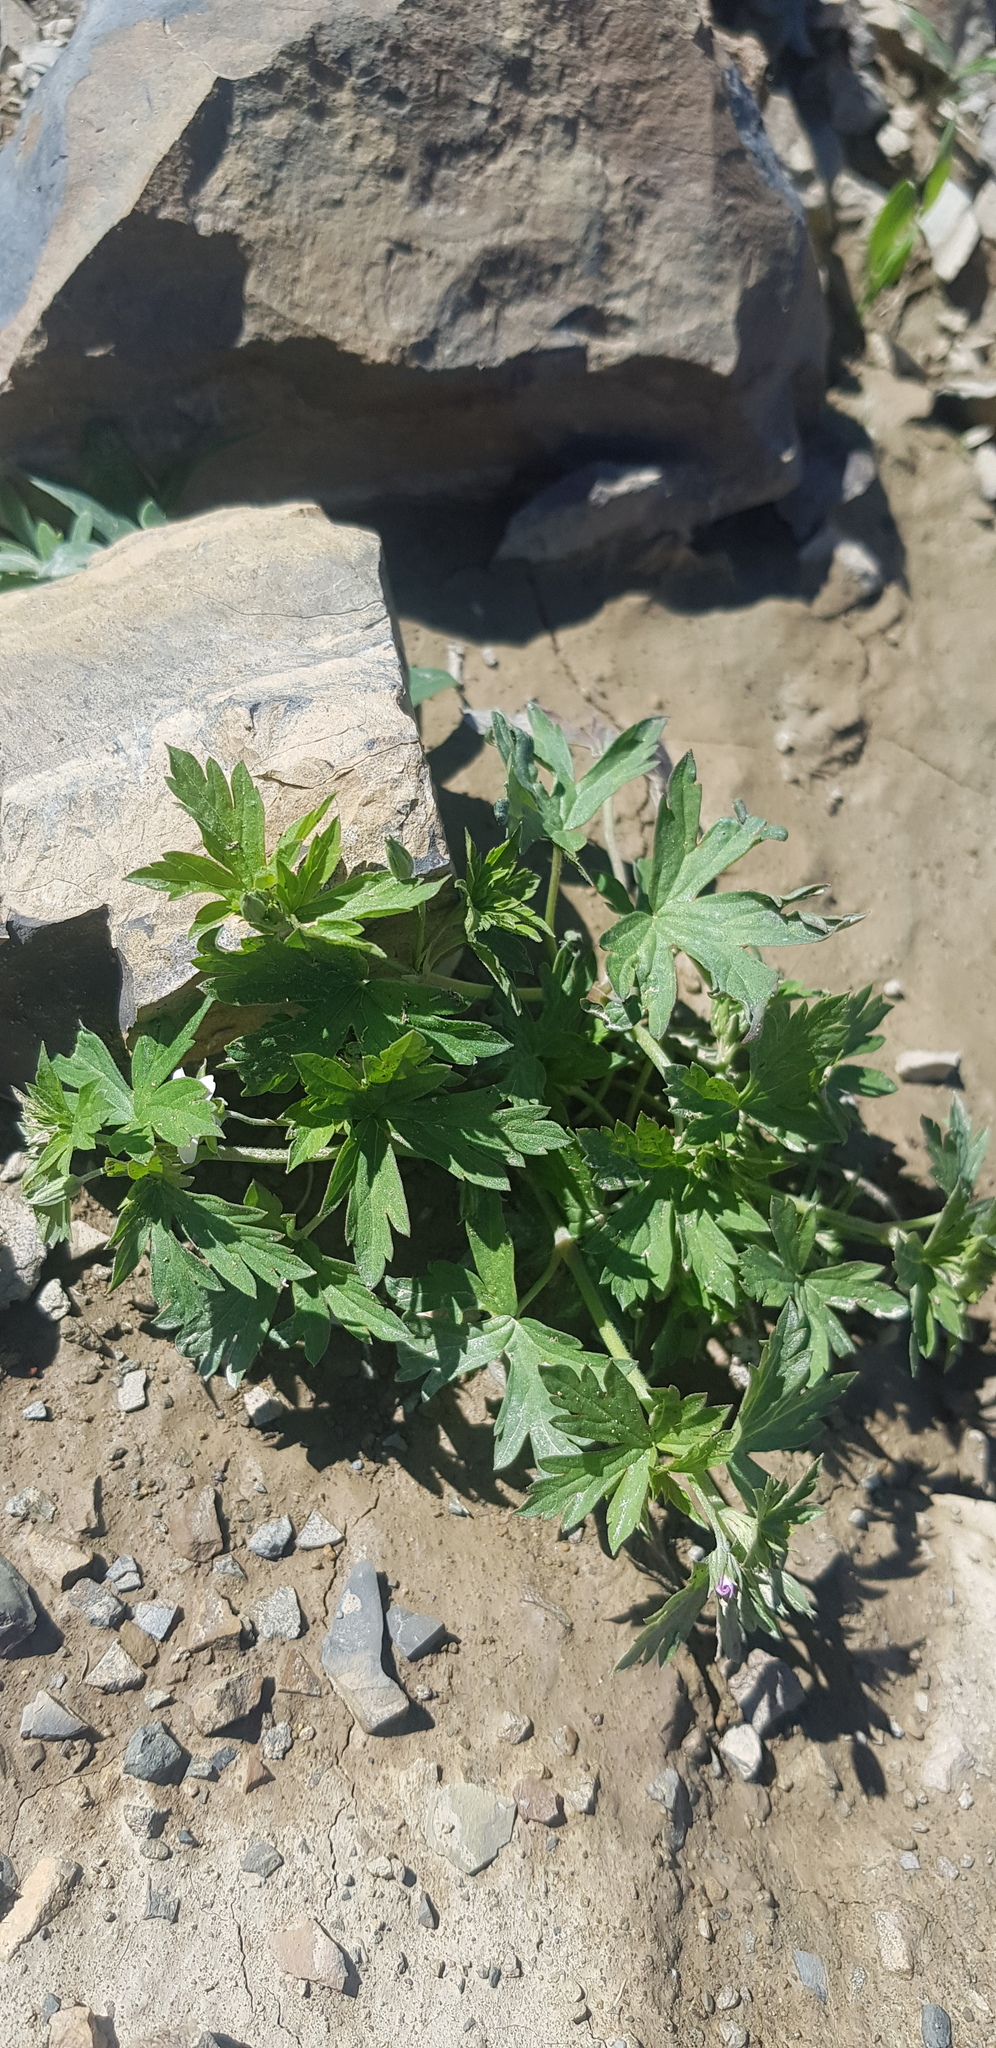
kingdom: Plantae
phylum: Tracheophyta
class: Magnoliopsida
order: Geraniales
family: Geraniaceae
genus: Geranium
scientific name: Geranium sibiricum
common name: Siberian crane's-bill
